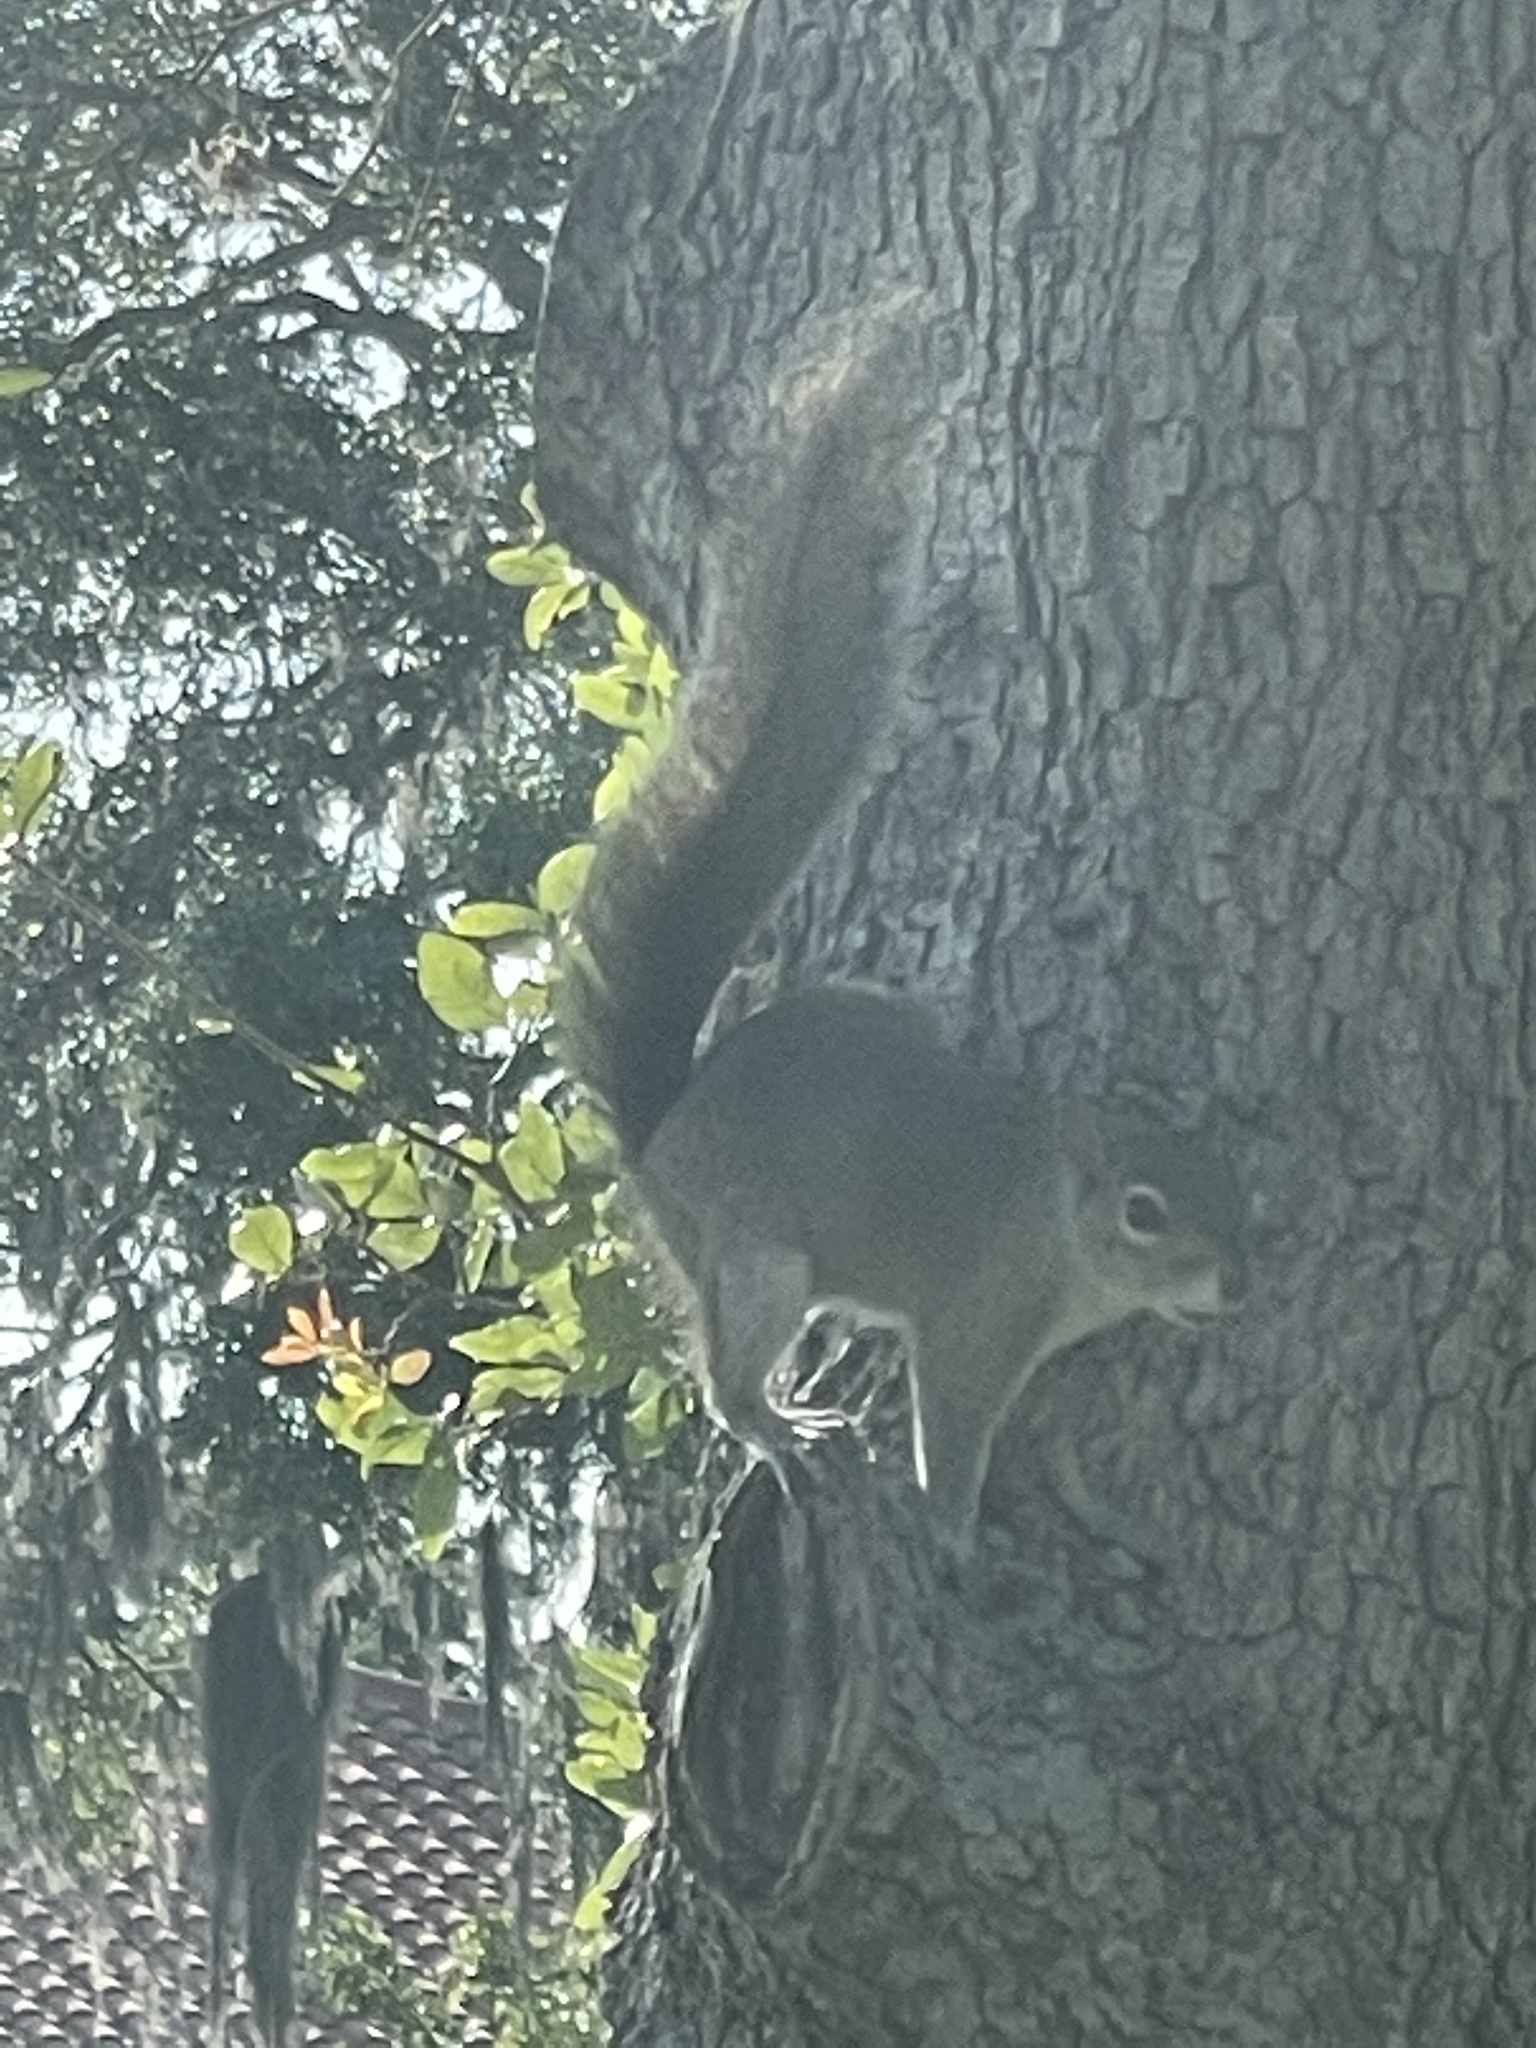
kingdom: Animalia
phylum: Chordata
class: Mammalia
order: Rodentia
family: Sciuridae
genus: Sciurus
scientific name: Sciurus carolinensis
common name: Eastern gray squirrel
